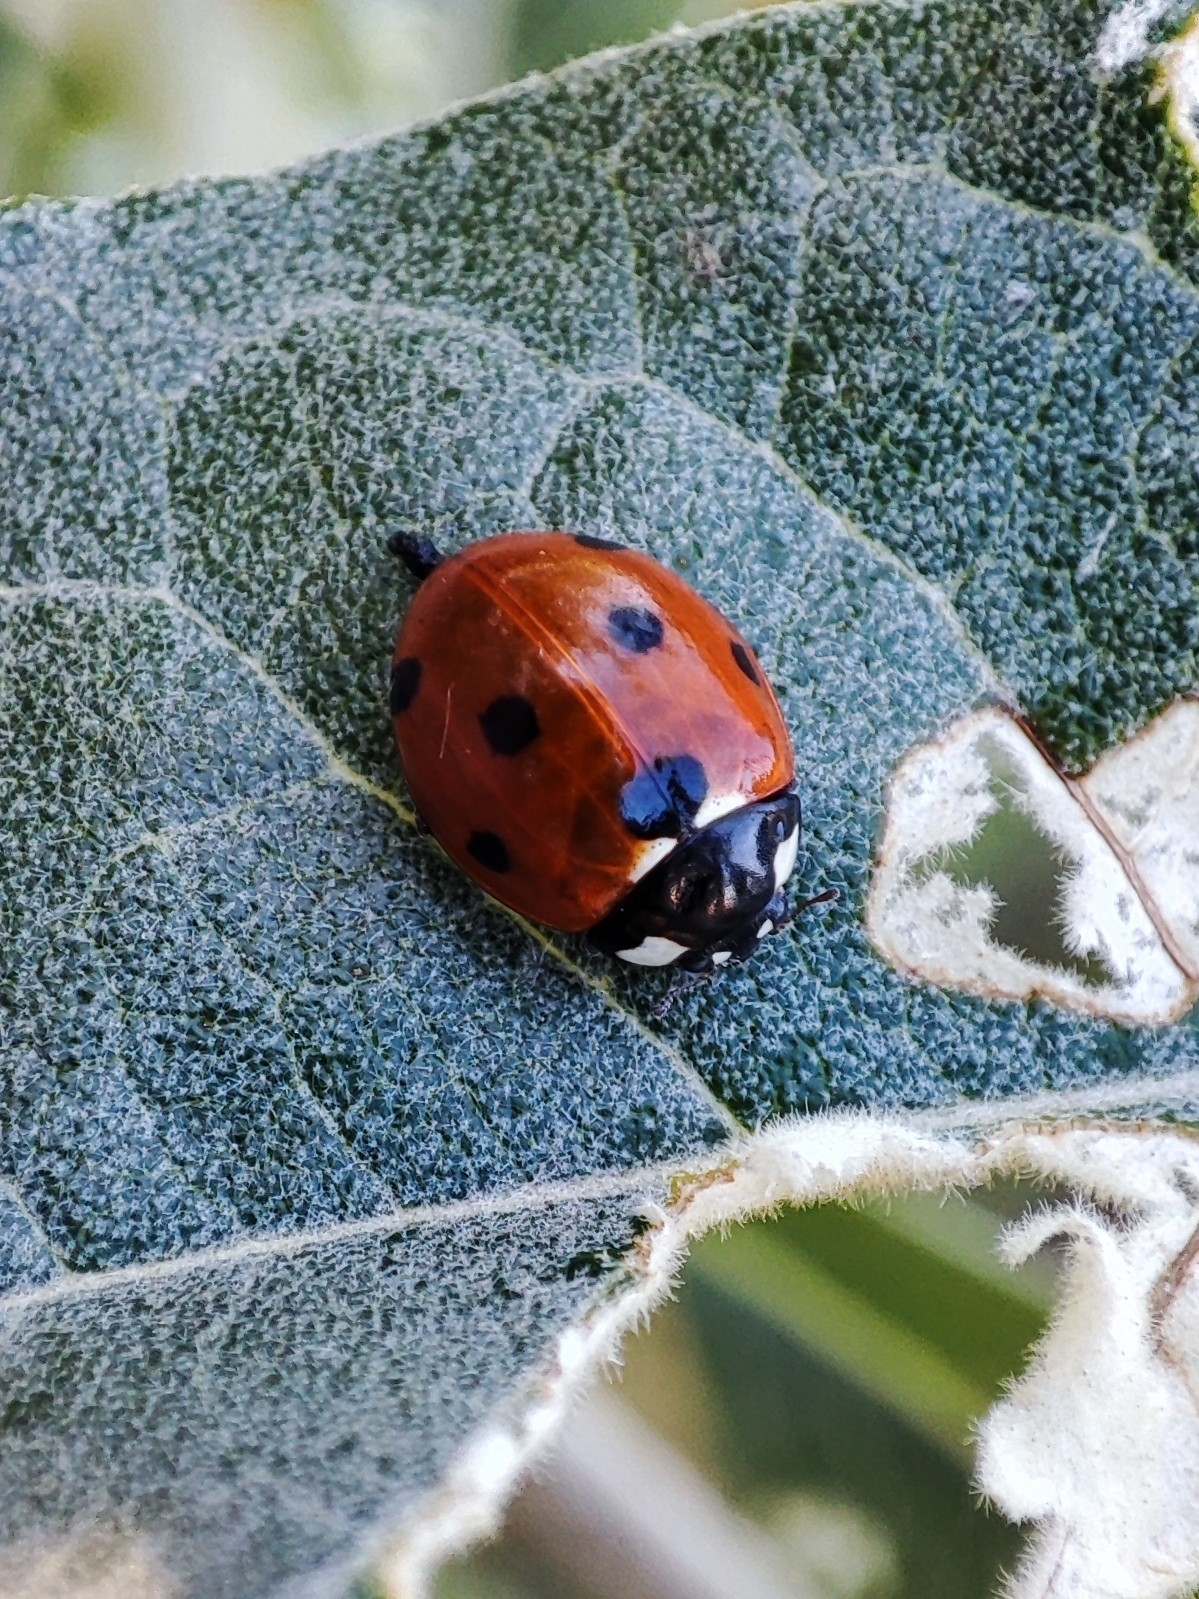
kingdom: Animalia
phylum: Arthropoda
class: Insecta
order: Coleoptera
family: Coccinellidae
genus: Coccinella
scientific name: Coccinella septempunctata
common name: Sevenspotted lady beetle
